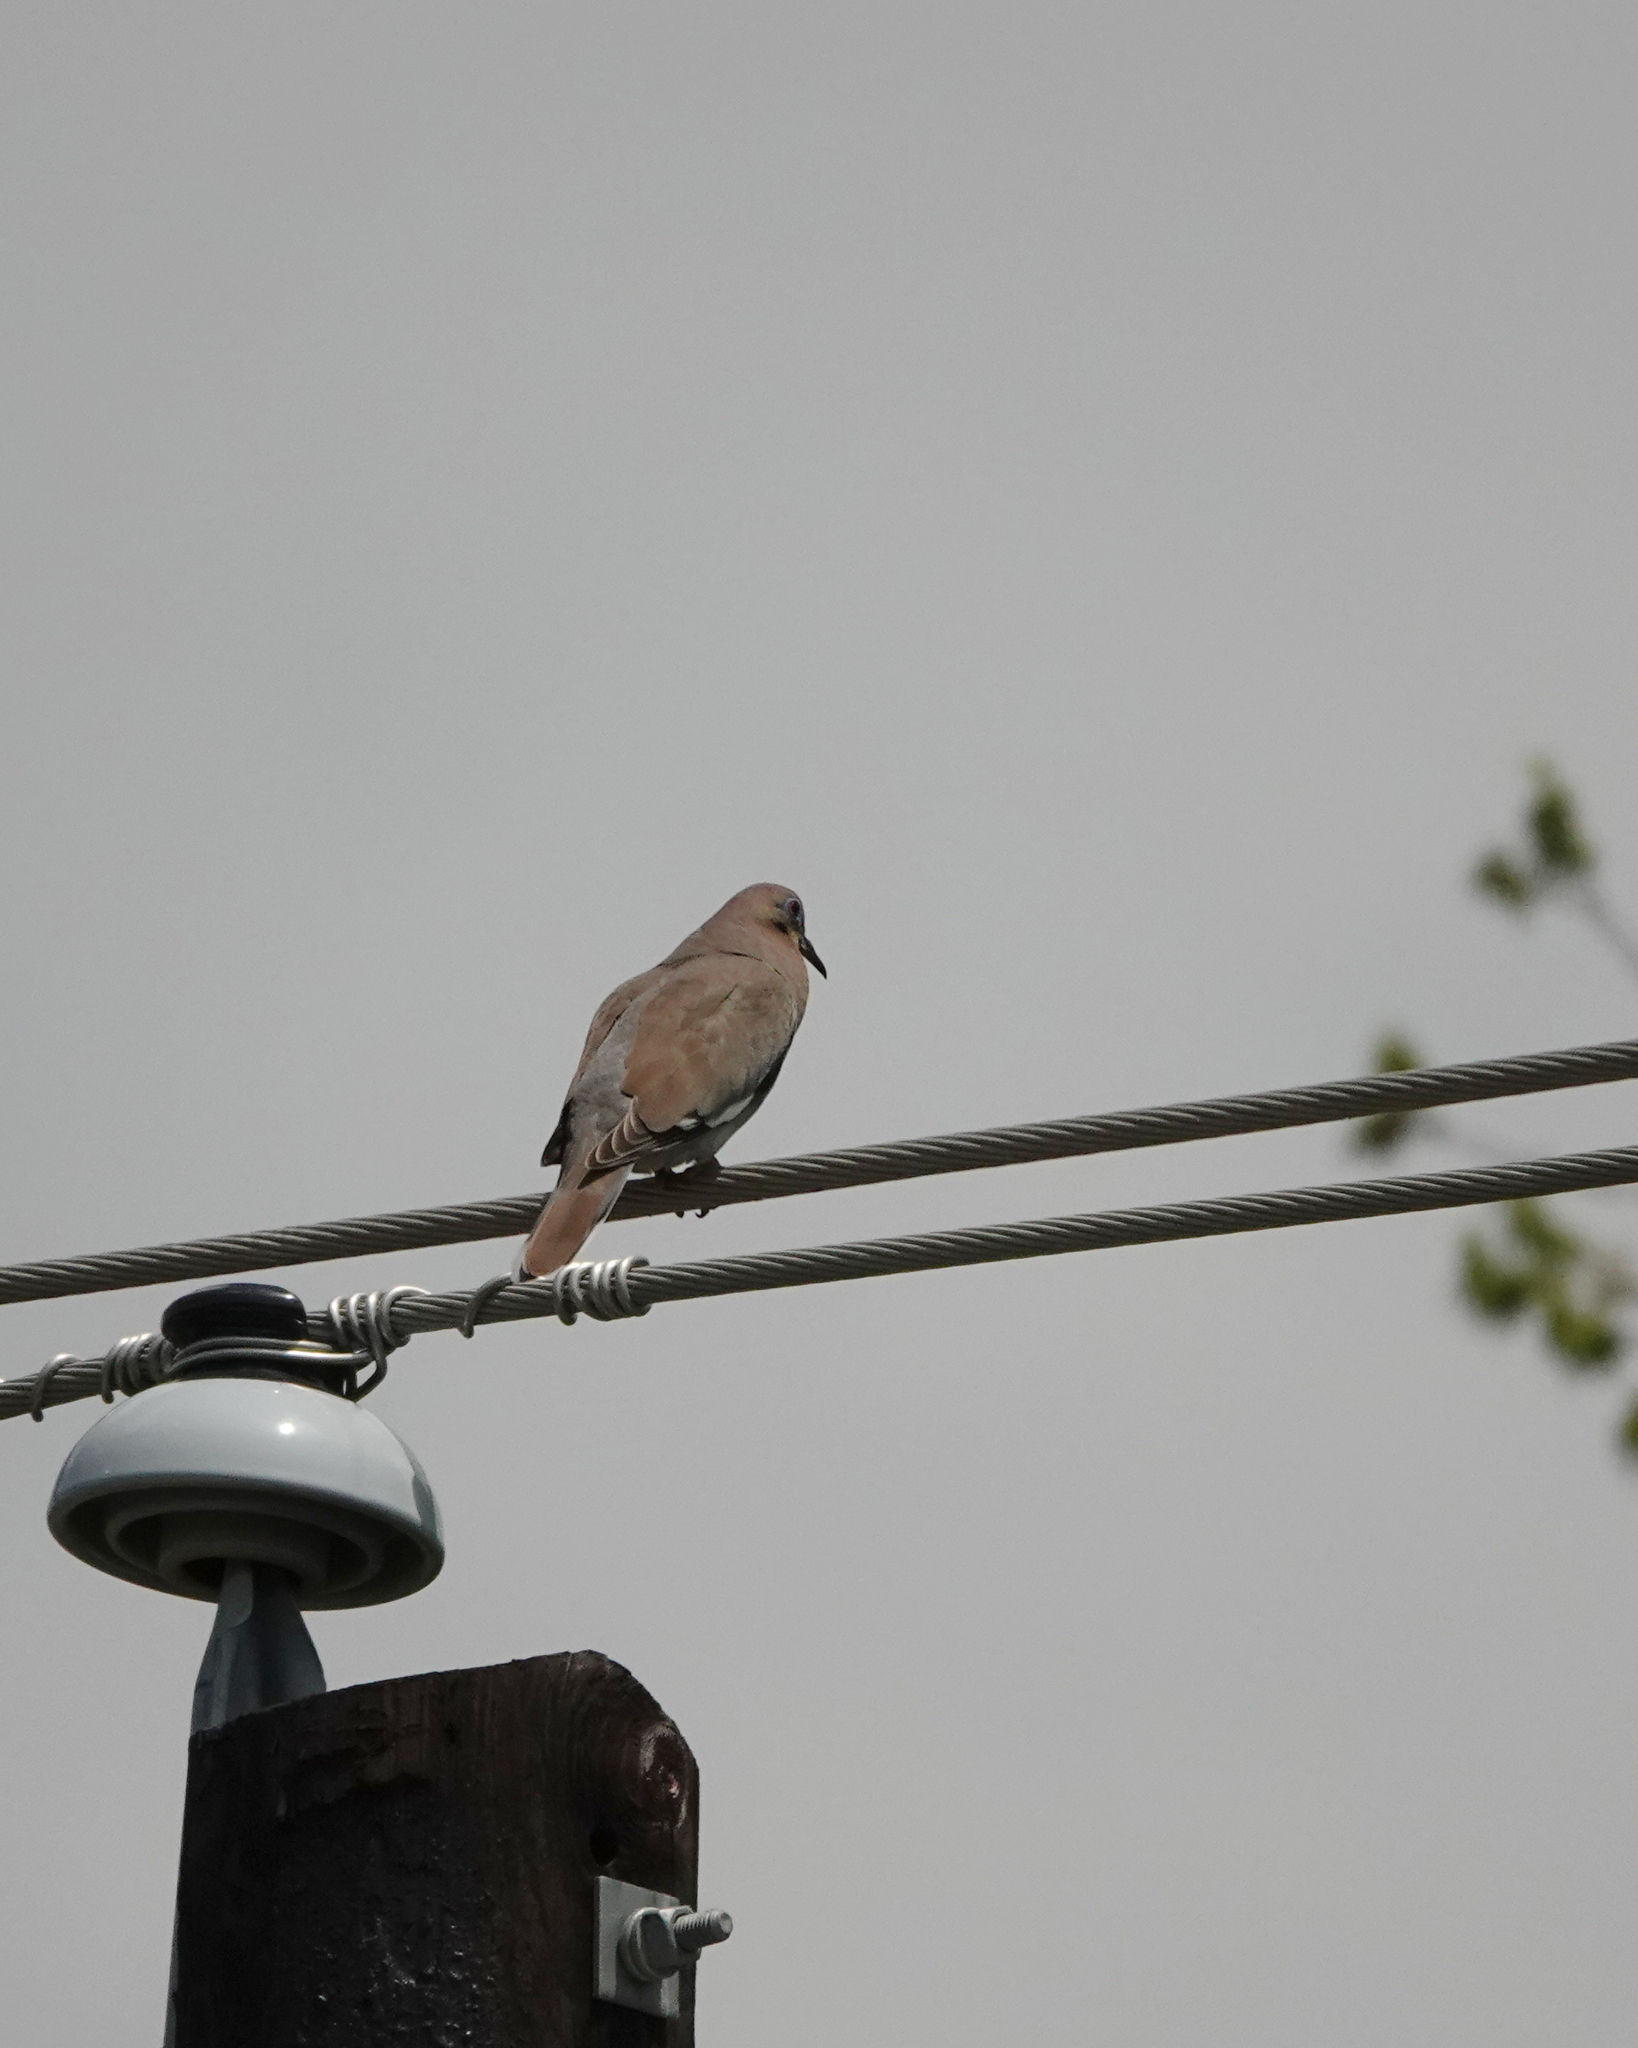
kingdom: Animalia
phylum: Chordata
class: Aves
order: Columbiformes
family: Columbidae
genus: Zenaida
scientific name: Zenaida asiatica
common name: White-winged dove
